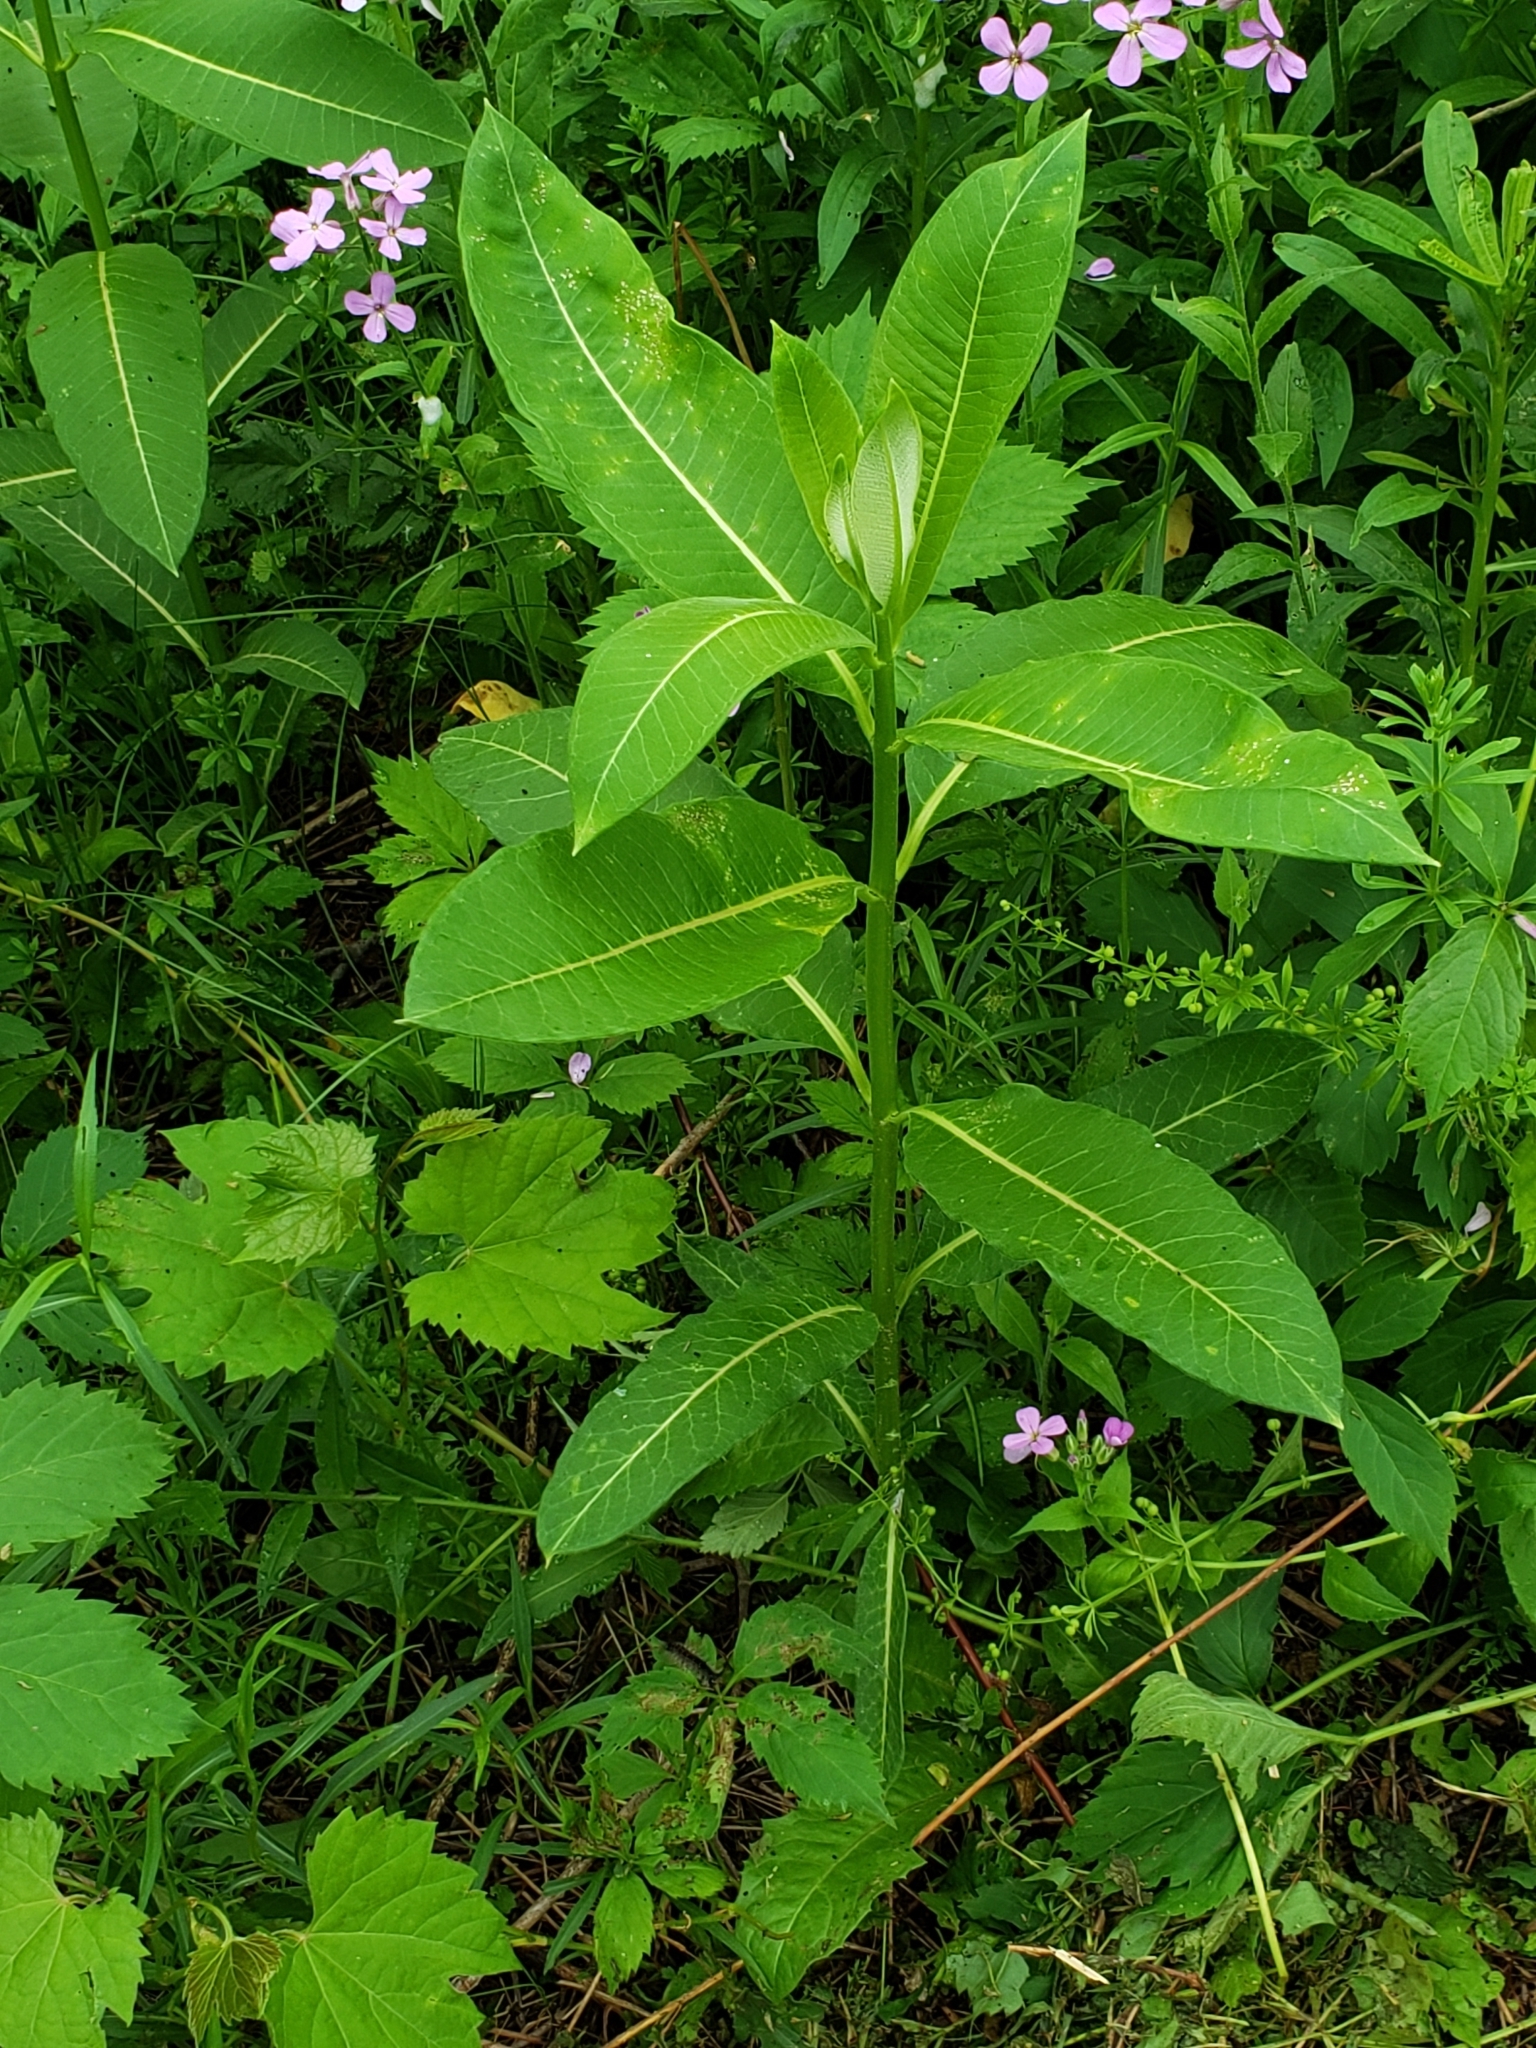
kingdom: Plantae
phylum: Tracheophyta
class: Magnoliopsida
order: Gentianales
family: Apocynaceae
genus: Asclepias
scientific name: Asclepias syriaca
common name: Common milkweed
